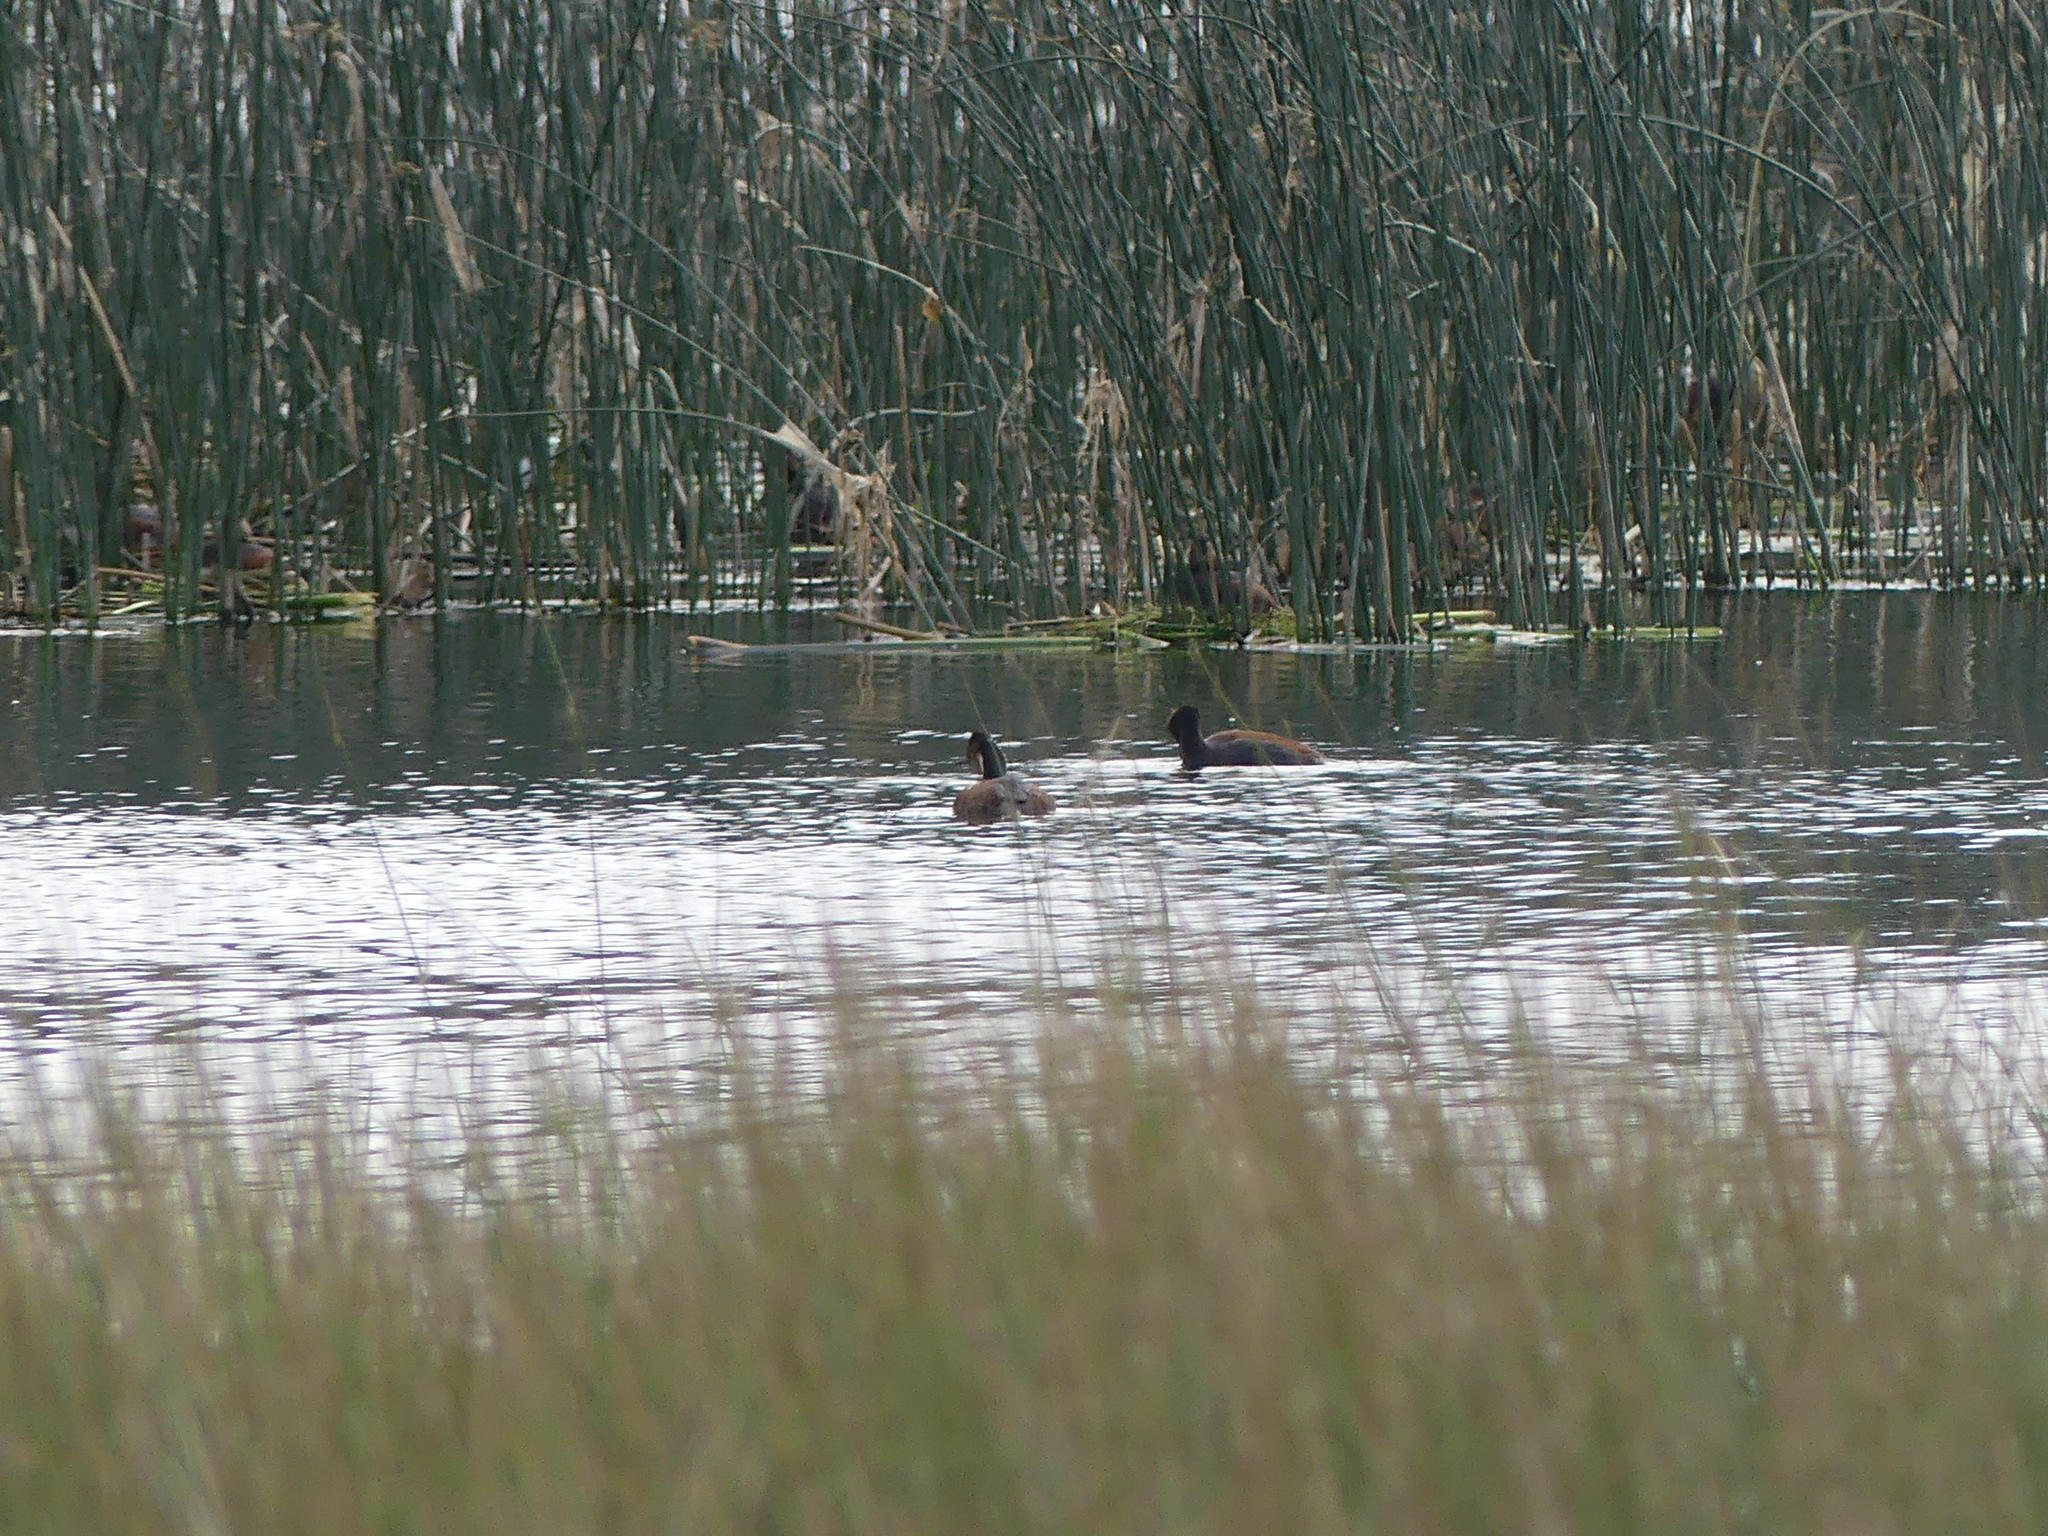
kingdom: Animalia
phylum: Chordata
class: Aves
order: Podicipediformes
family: Podicipedidae
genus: Podiceps
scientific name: Podiceps nigricollis
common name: Black-necked grebe
